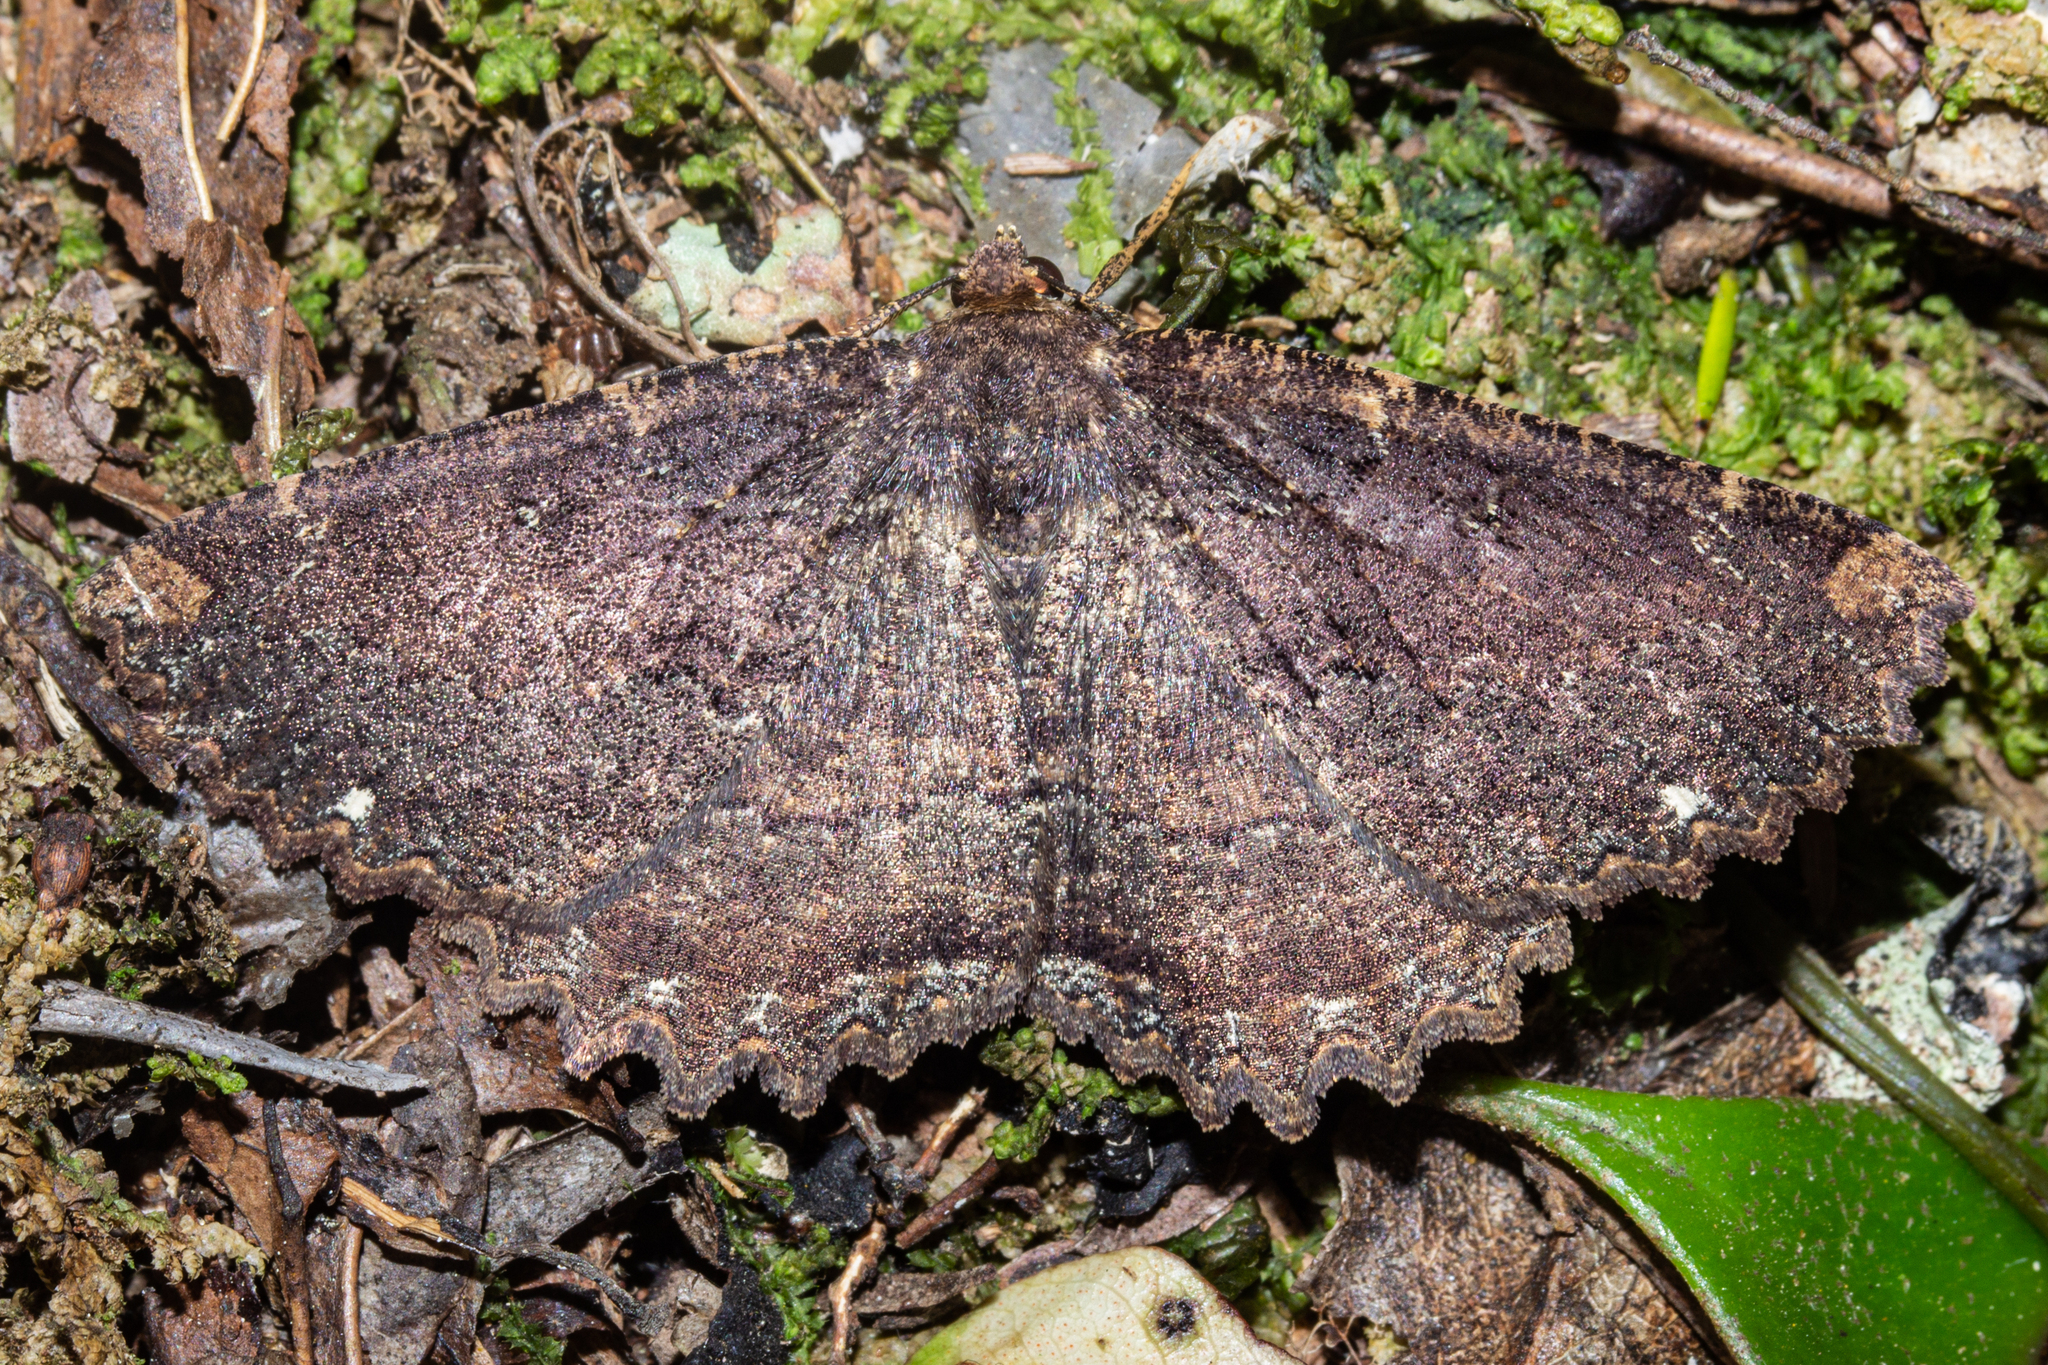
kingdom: Animalia
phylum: Arthropoda
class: Insecta
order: Lepidoptera
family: Geometridae
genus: Gellonia
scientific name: Gellonia dejectaria
